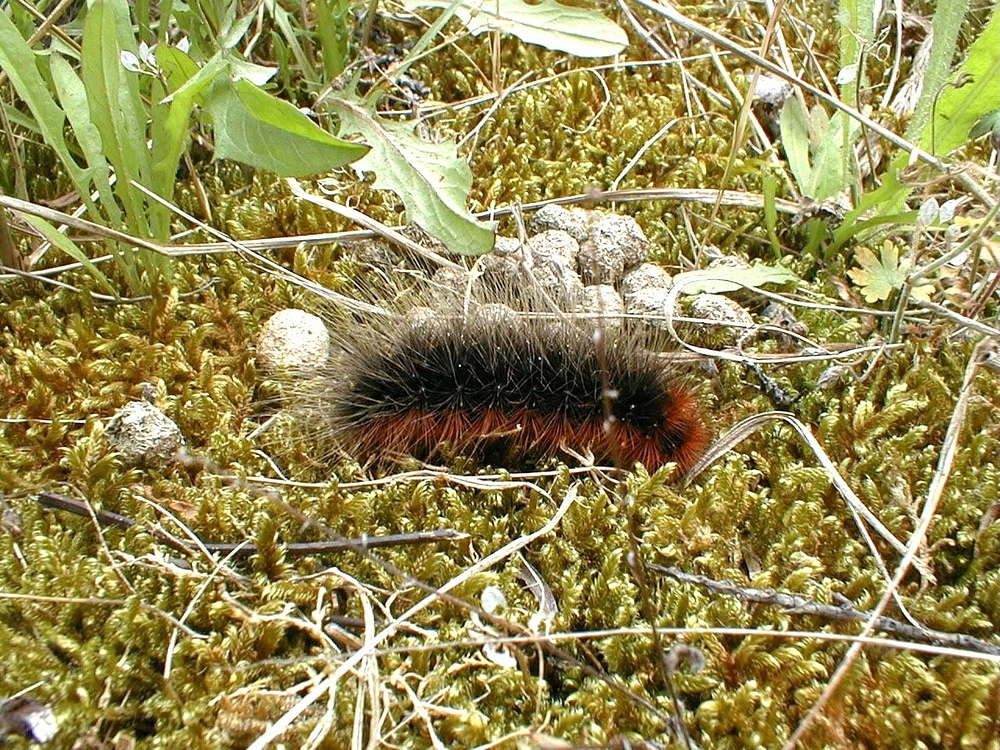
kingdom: Animalia
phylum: Arthropoda
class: Insecta
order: Lepidoptera
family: Erebidae
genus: Arctia
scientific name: Arctia caja
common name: Garden tiger
